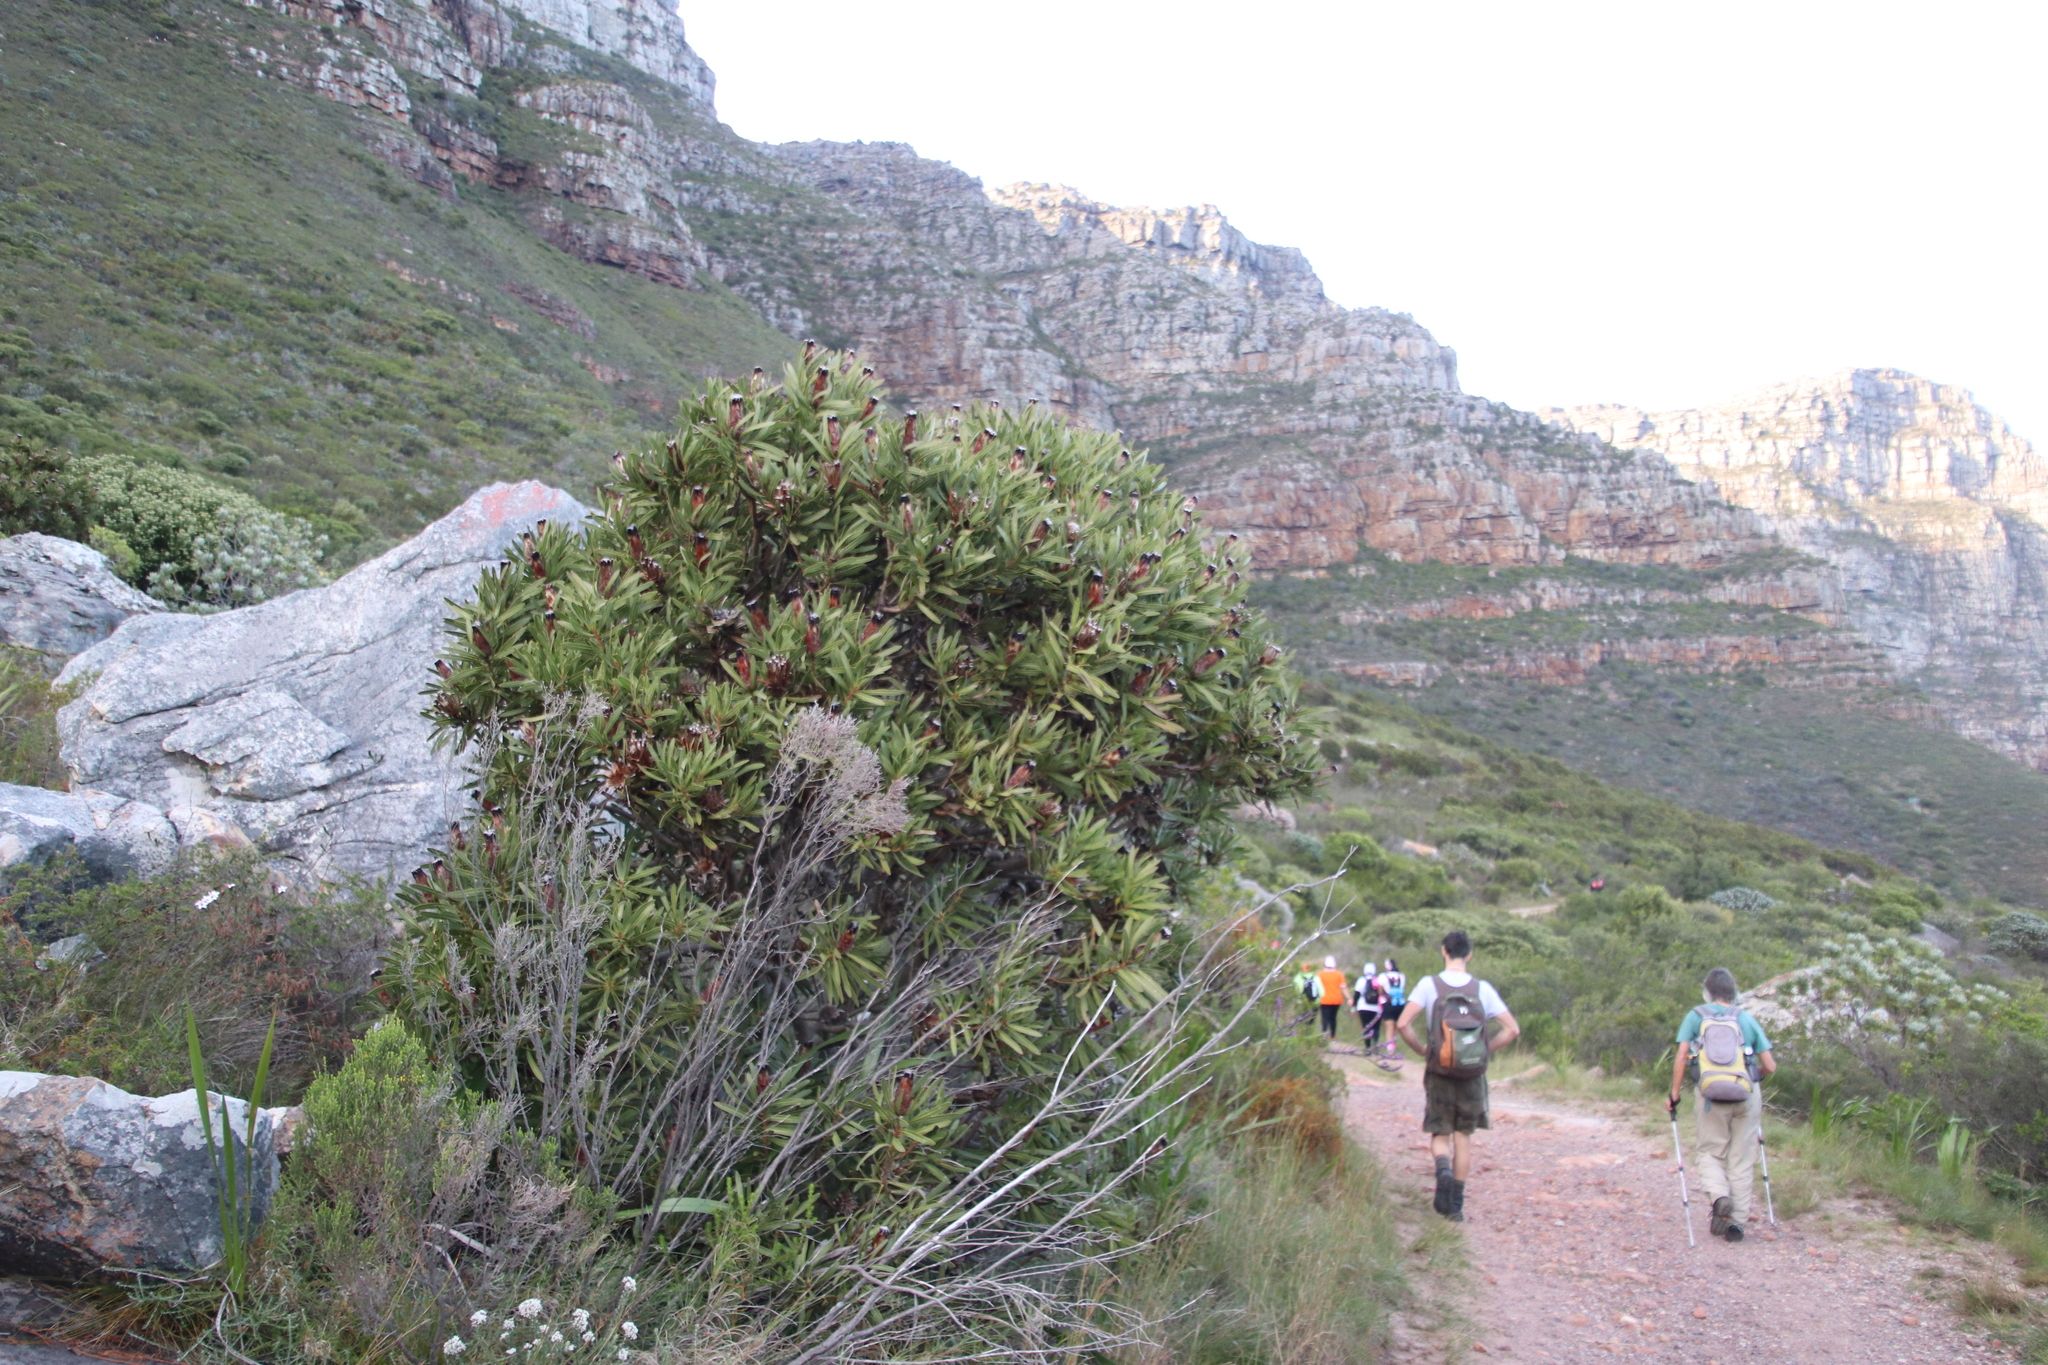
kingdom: Plantae
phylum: Tracheophyta
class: Magnoliopsida
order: Proteales
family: Proteaceae
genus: Protea
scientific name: Protea lepidocarpodendron
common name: Black-bearded protea
